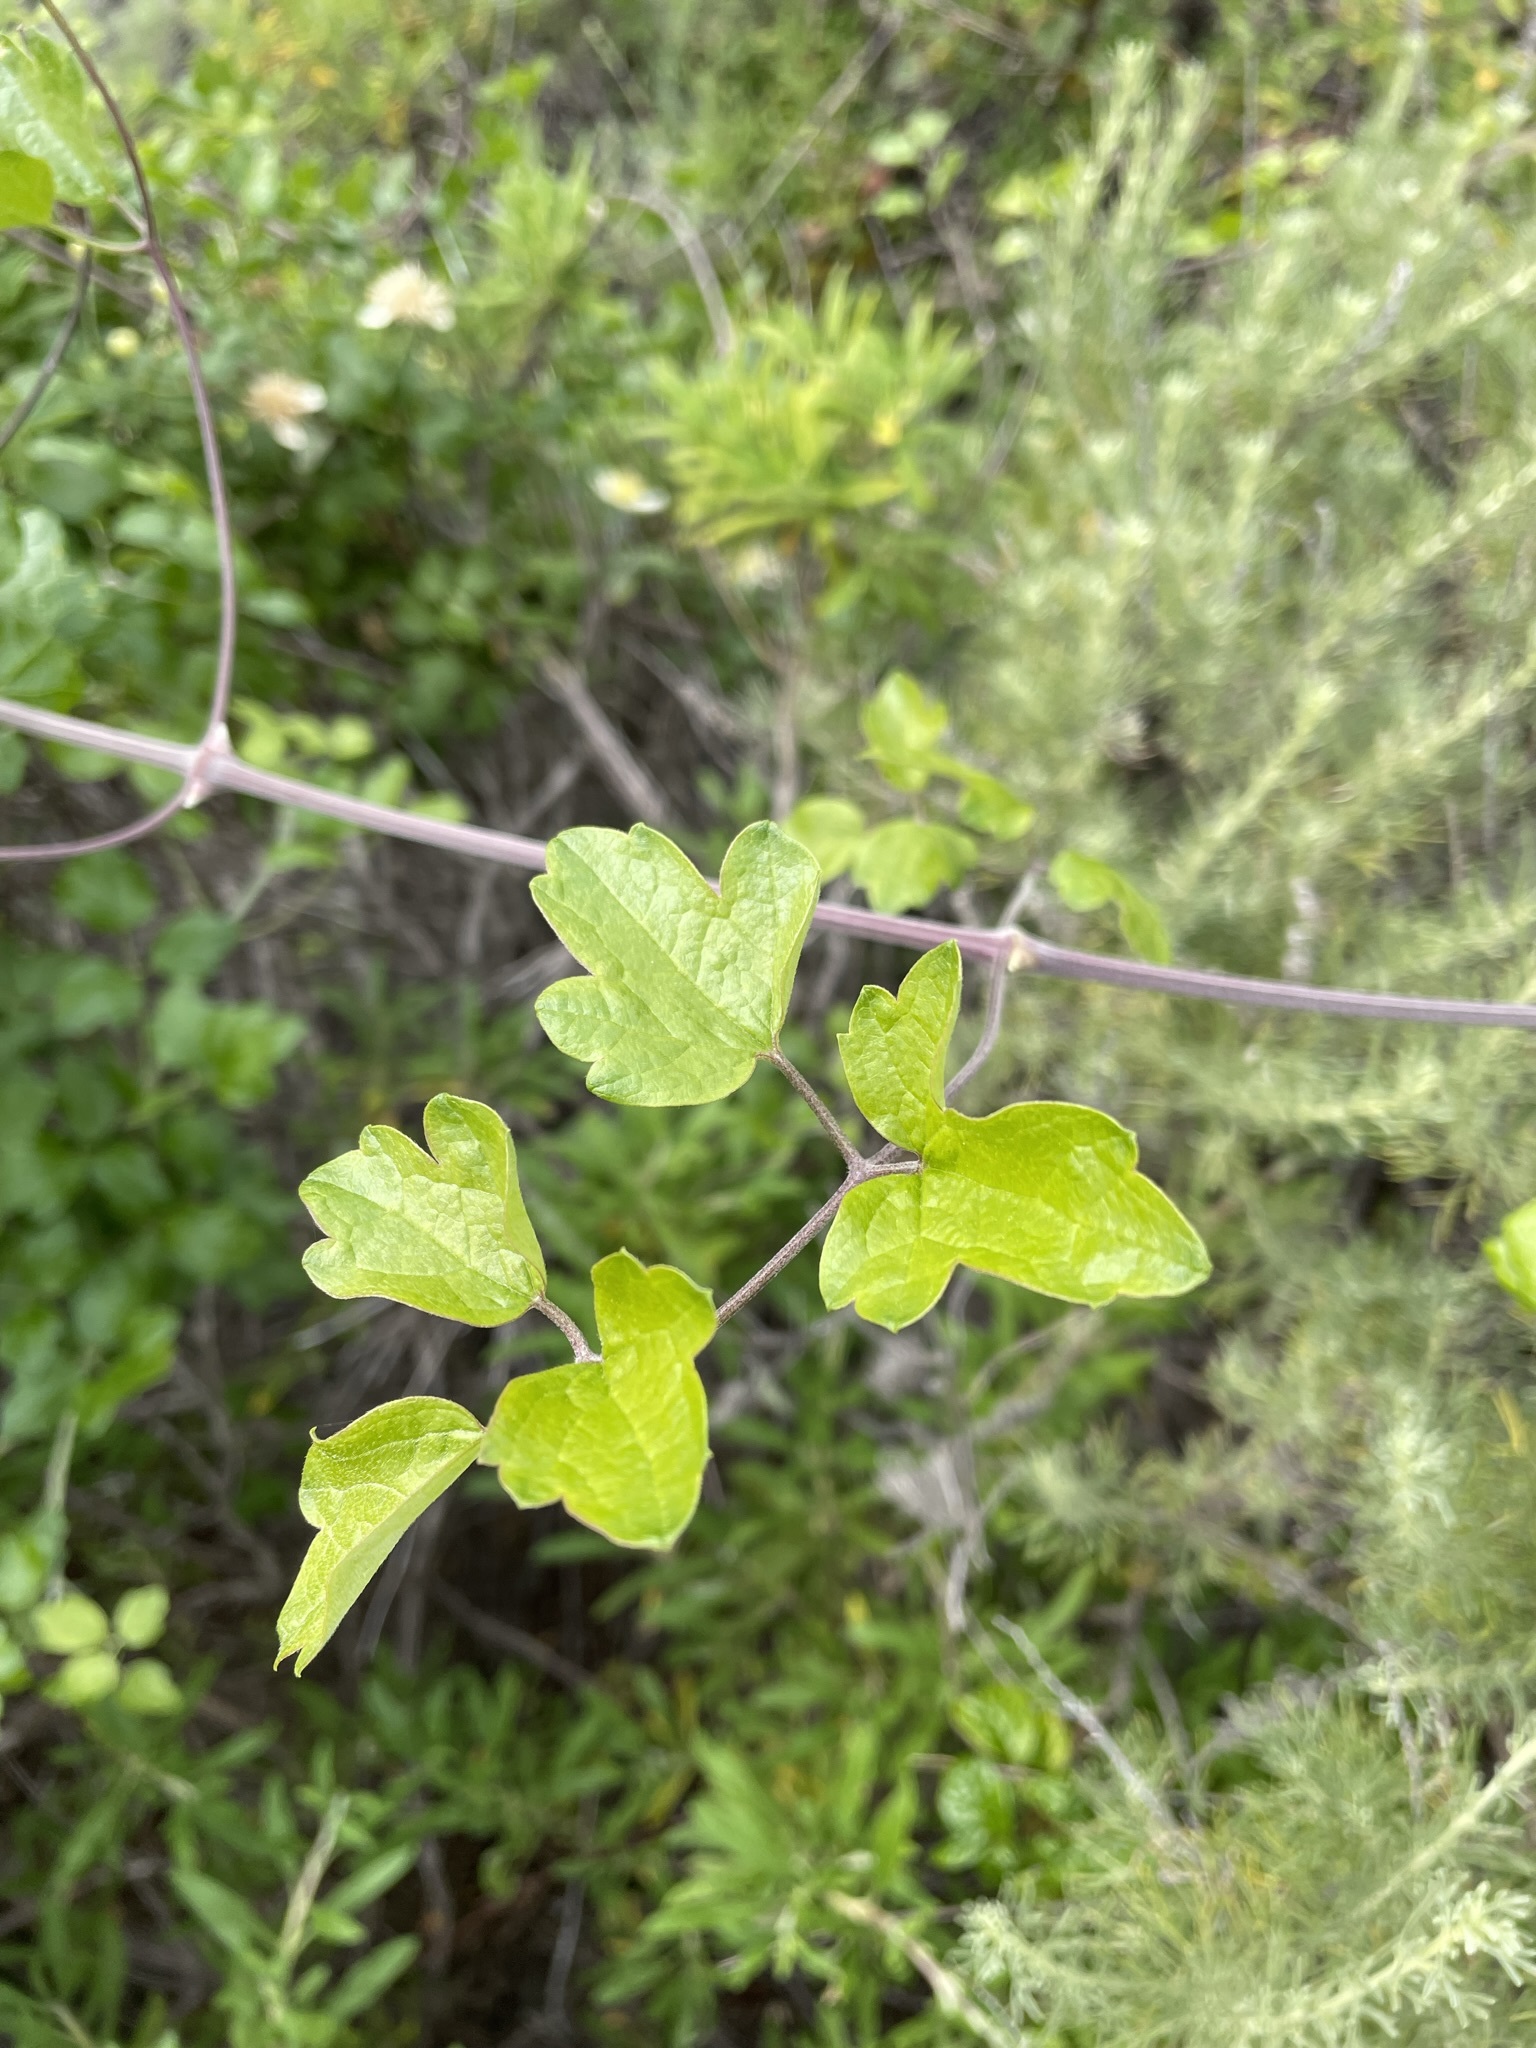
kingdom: Plantae
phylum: Tracheophyta
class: Magnoliopsida
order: Ranunculales
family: Ranunculaceae
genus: Clematis
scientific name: Clematis lasiantha
